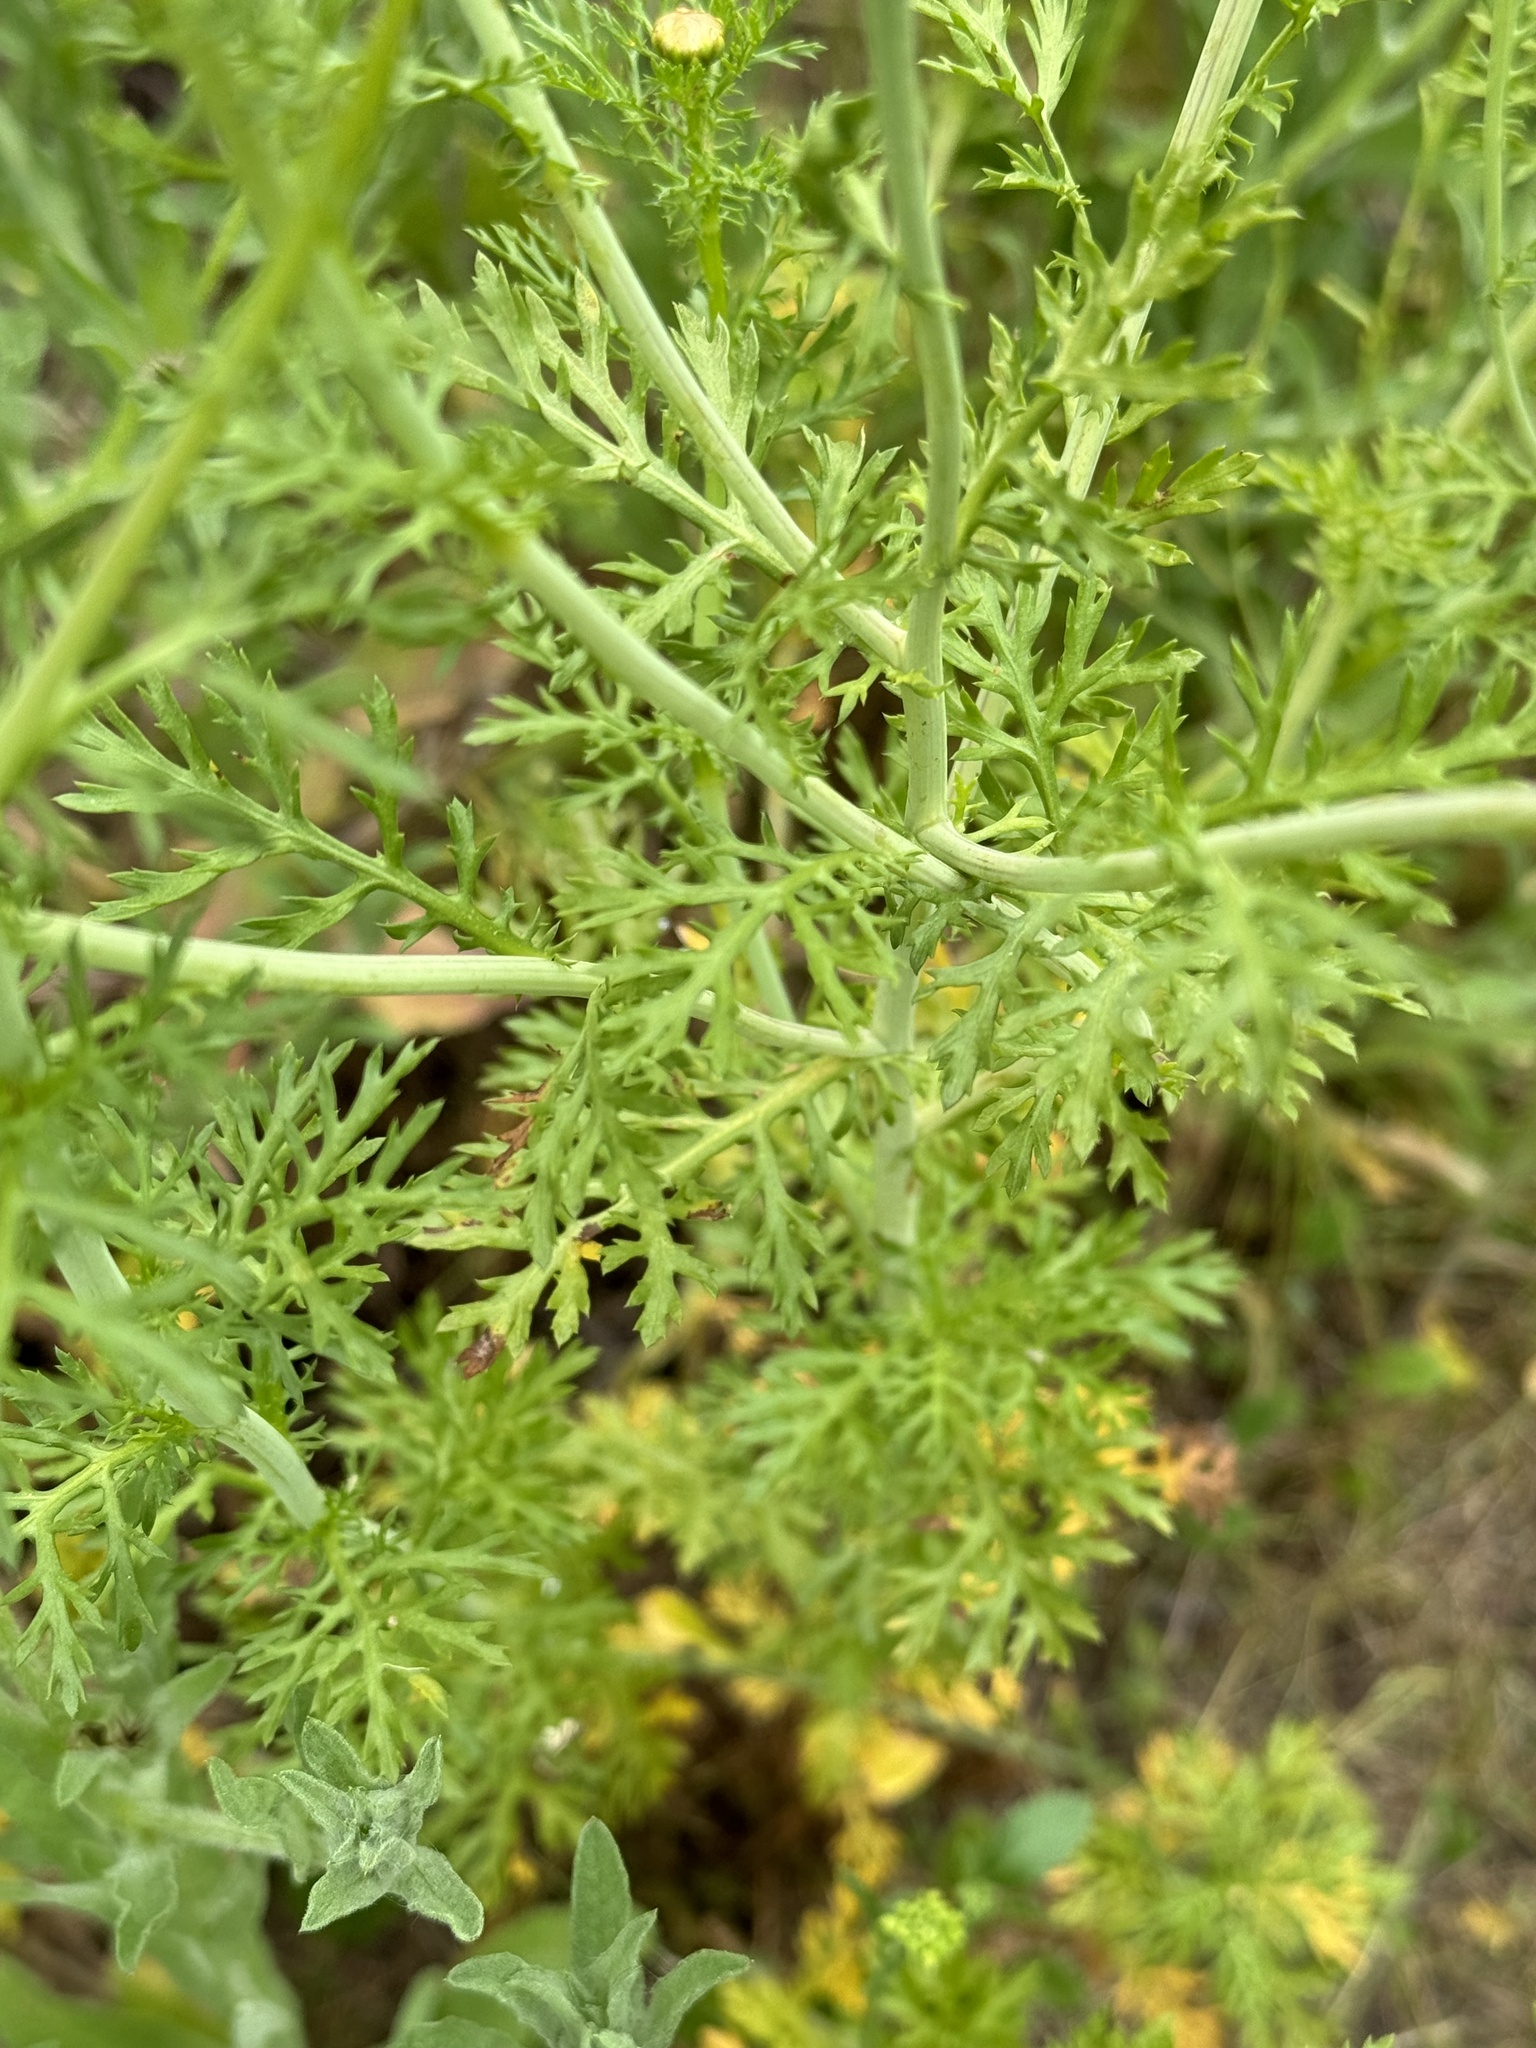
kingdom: Plantae
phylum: Tracheophyta
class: Magnoliopsida
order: Asterales
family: Asteraceae
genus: Glebionis
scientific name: Glebionis coronaria
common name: Crowndaisy
